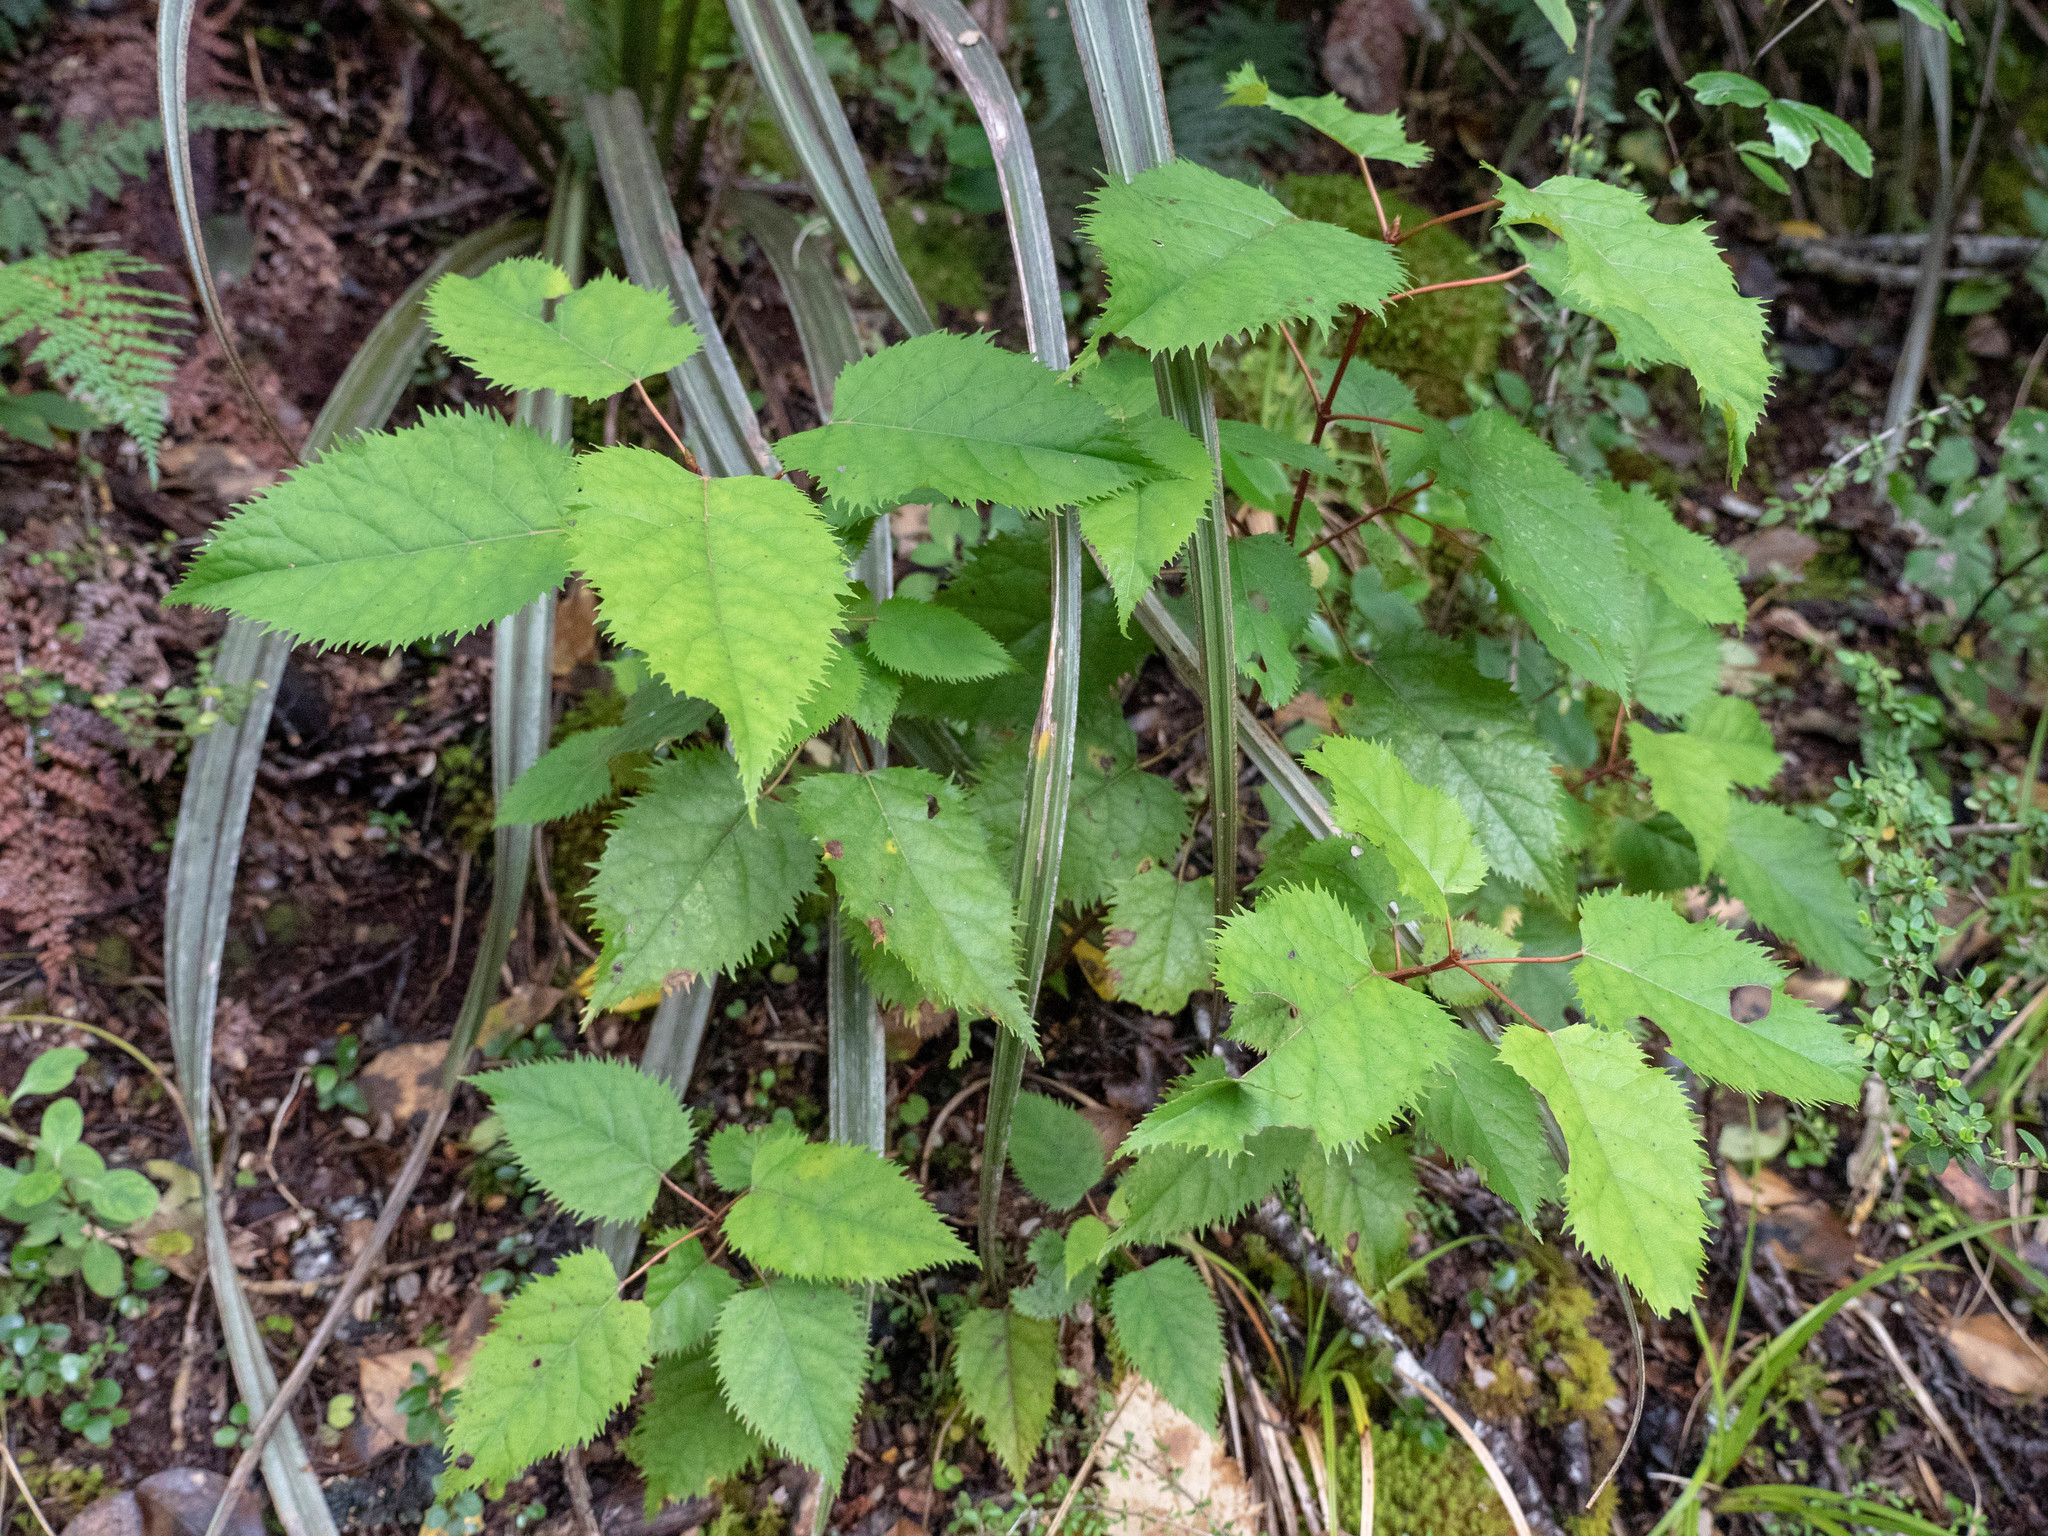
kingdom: Plantae
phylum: Tracheophyta
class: Magnoliopsida
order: Oxalidales
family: Elaeocarpaceae
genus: Aristotelia
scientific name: Aristotelia serrata
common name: New zealand wineberry
